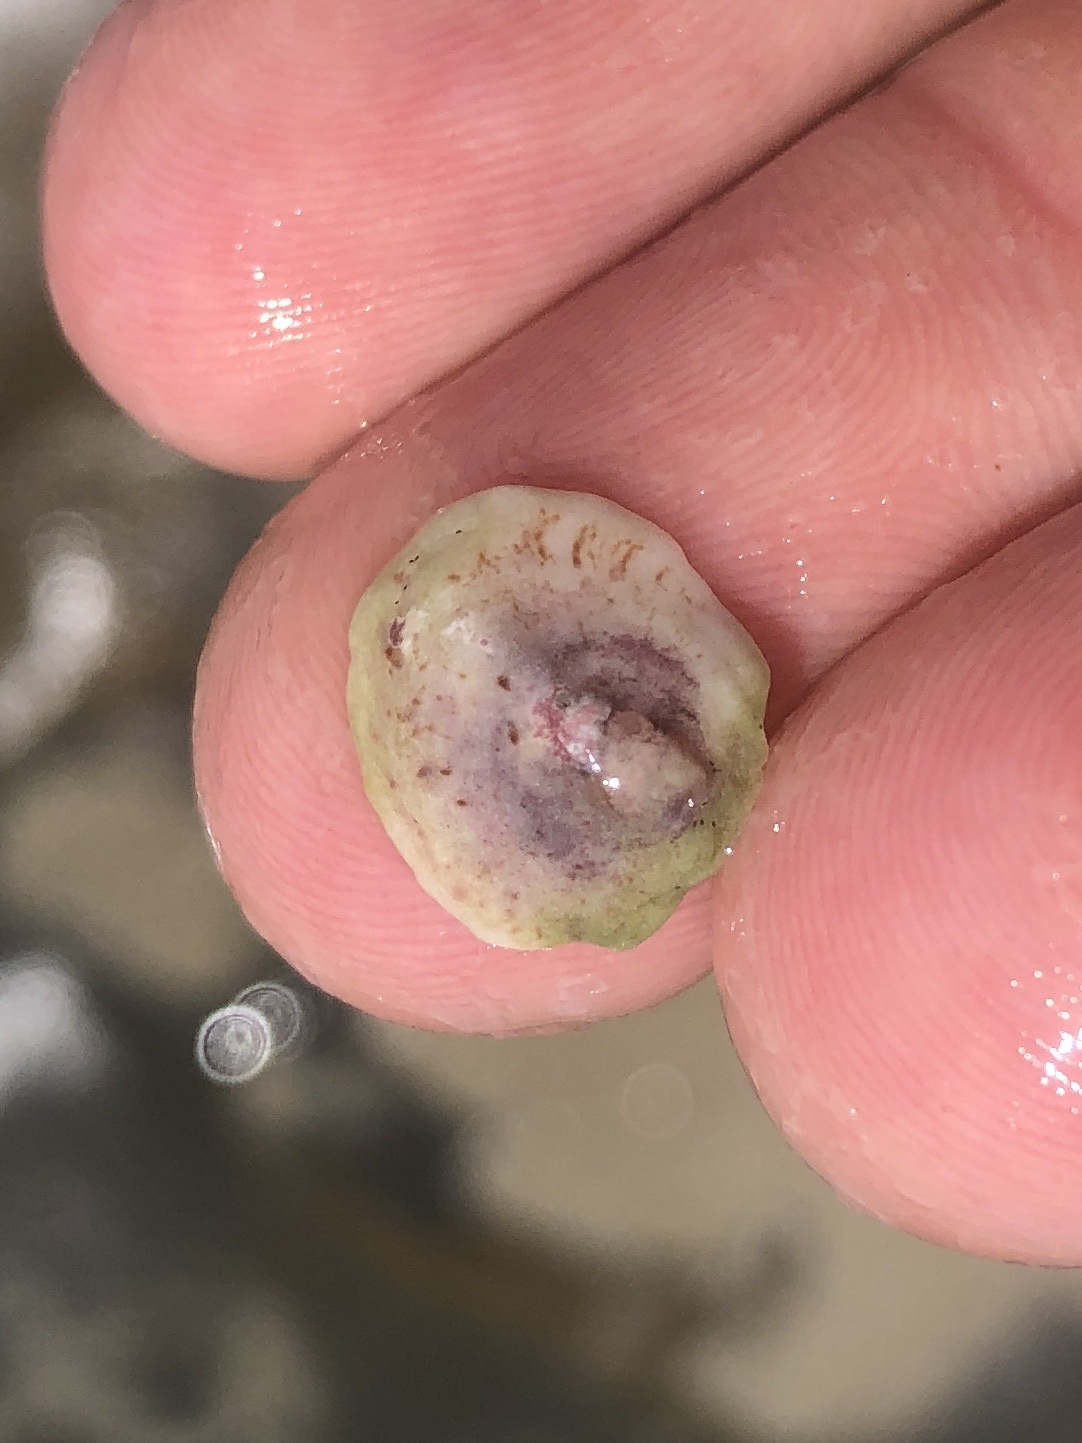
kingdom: Animalia
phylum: Mollusca
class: Gastropoda
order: Littorinimorpha
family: Calyptraeidae
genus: Crepipatella
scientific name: Crepipatella lingulata
